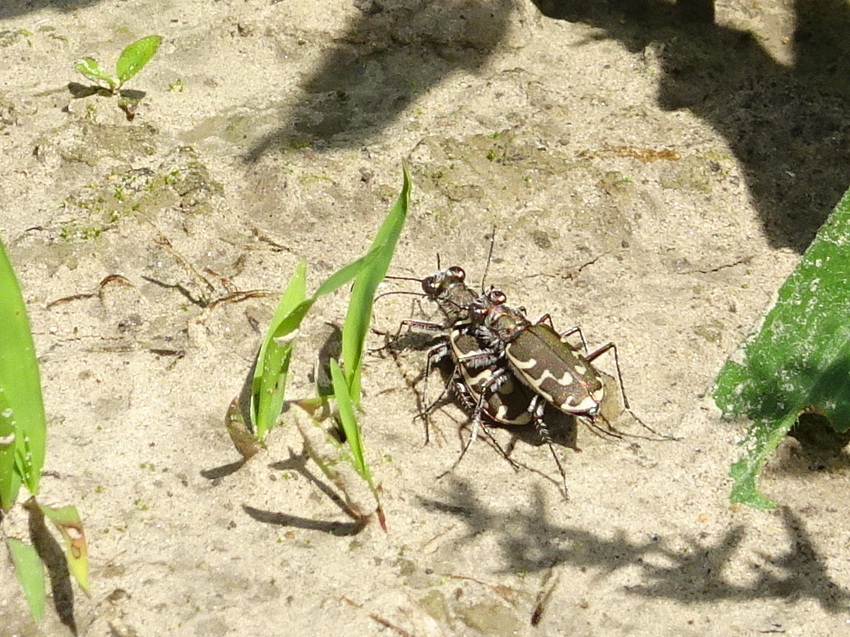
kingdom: Animalia
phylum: Arthropoda
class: Insecta
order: Coleoptera
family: Carabidae
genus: Cicindela
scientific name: Cicindela repanda
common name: Bronzed tiger beetle
